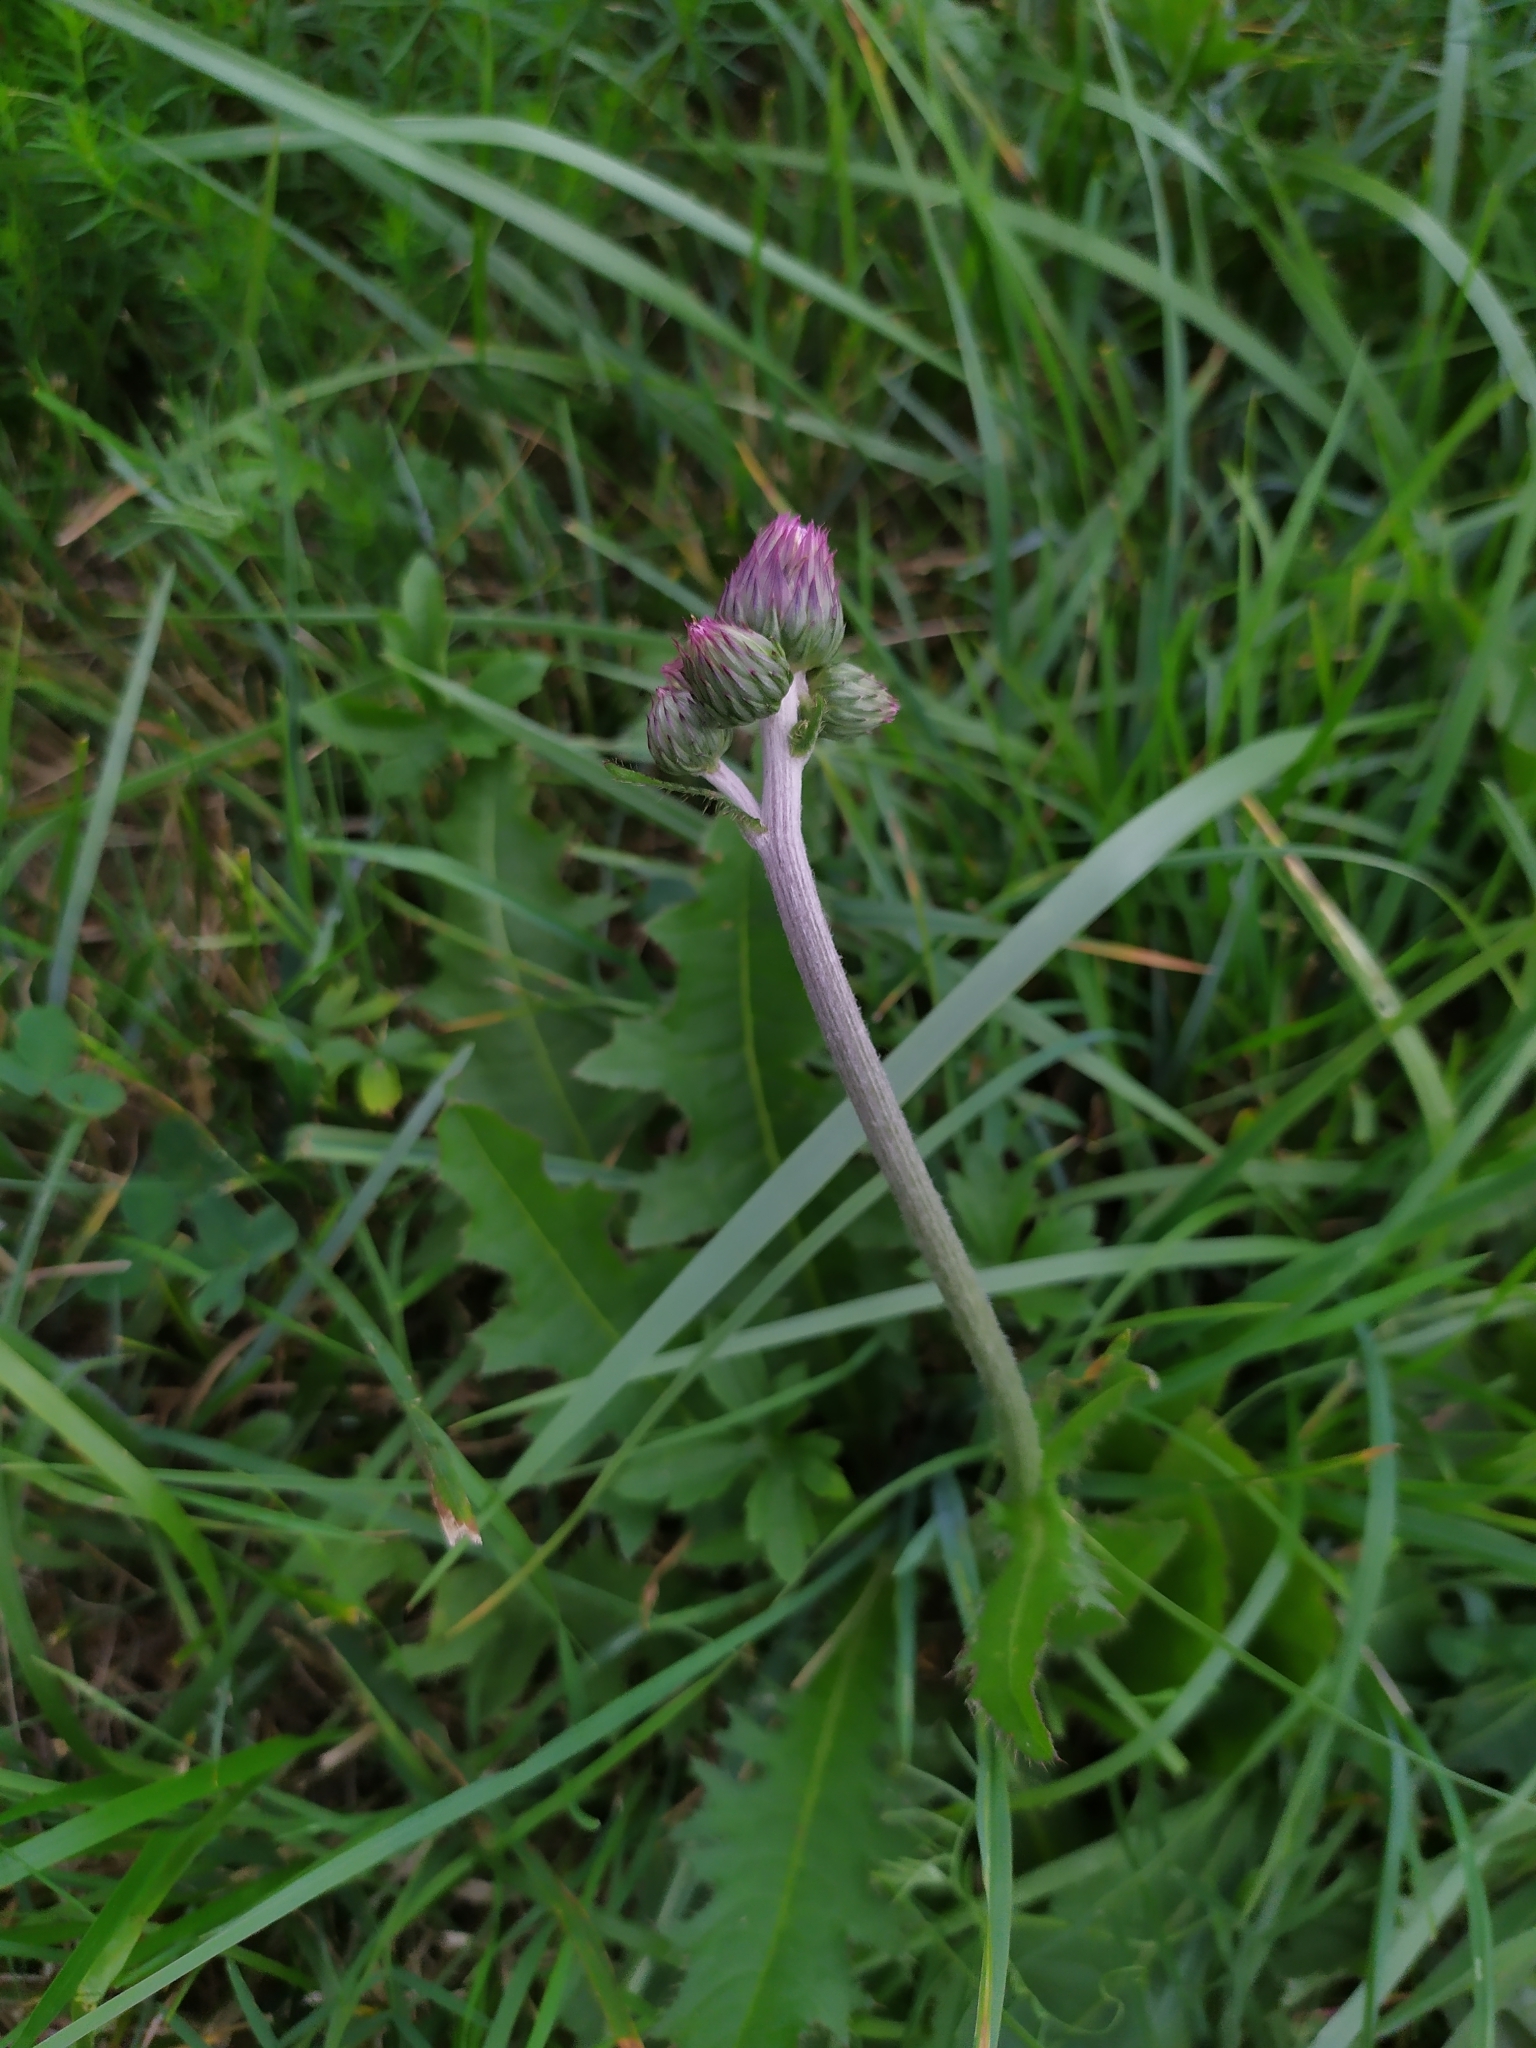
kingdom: Plantae
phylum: Tracheophyta
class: Magnoliopsida
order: Asterales
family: Asteraceae
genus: Cirsium
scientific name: Cirsium canum
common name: Queen anne's thistle
